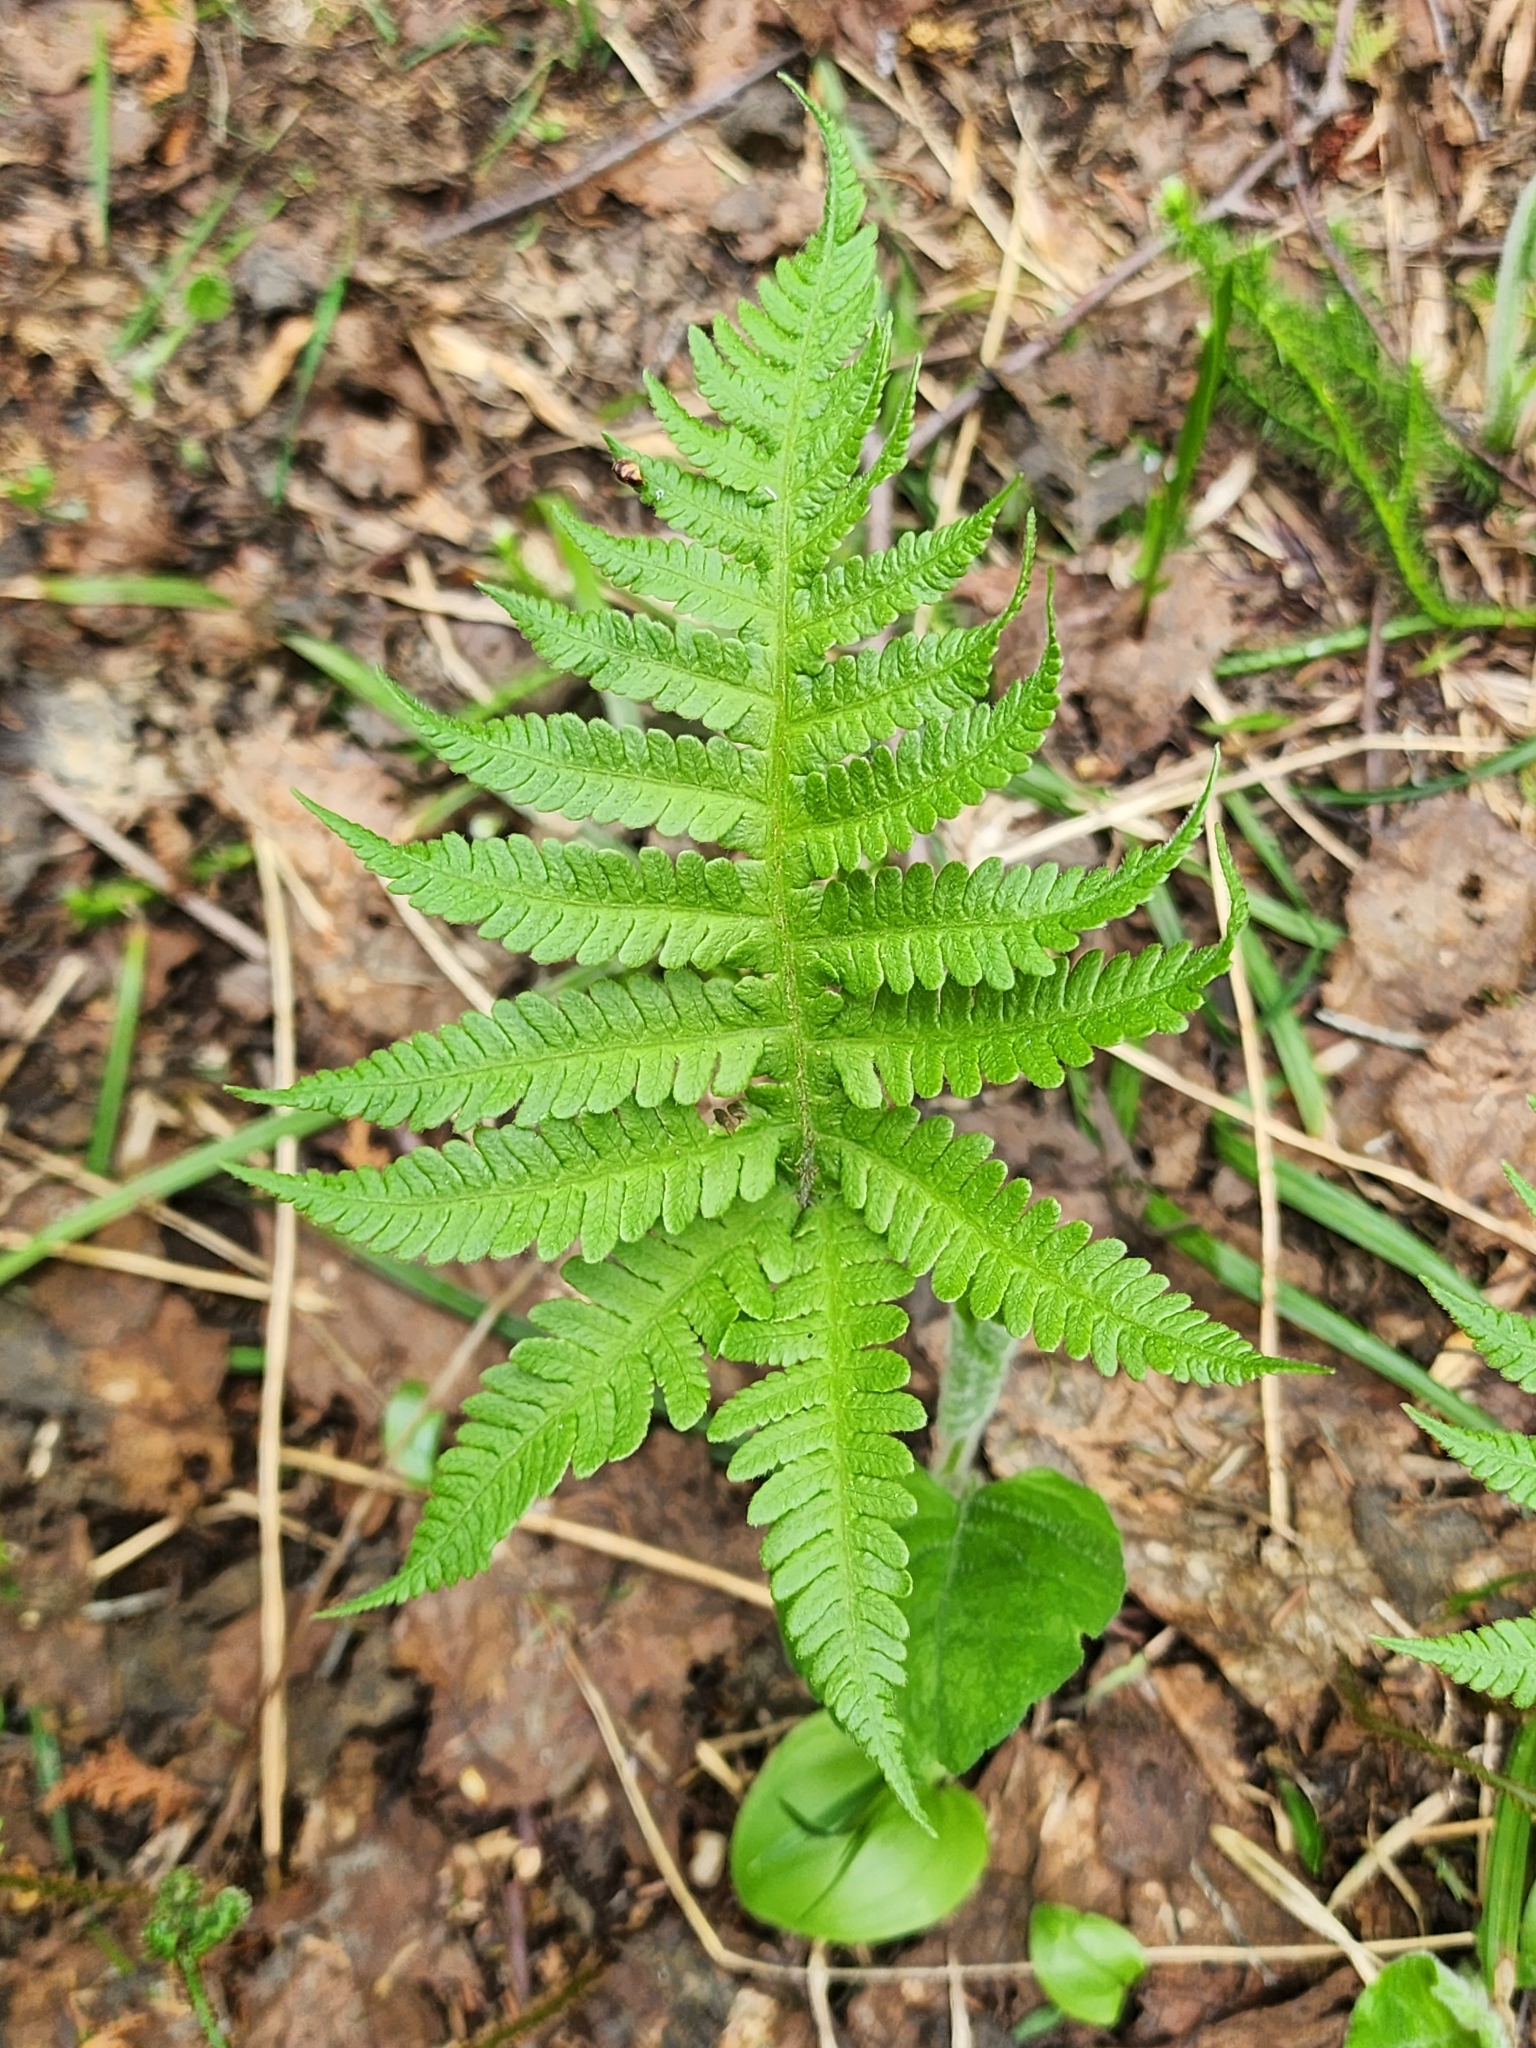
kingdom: Plantae
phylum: Tracheophyta
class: Polypodiopsida
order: Polypodiales
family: Thelypteridaceae
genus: Phegopteris
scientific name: Phegopteris connectilis
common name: Beech fern
